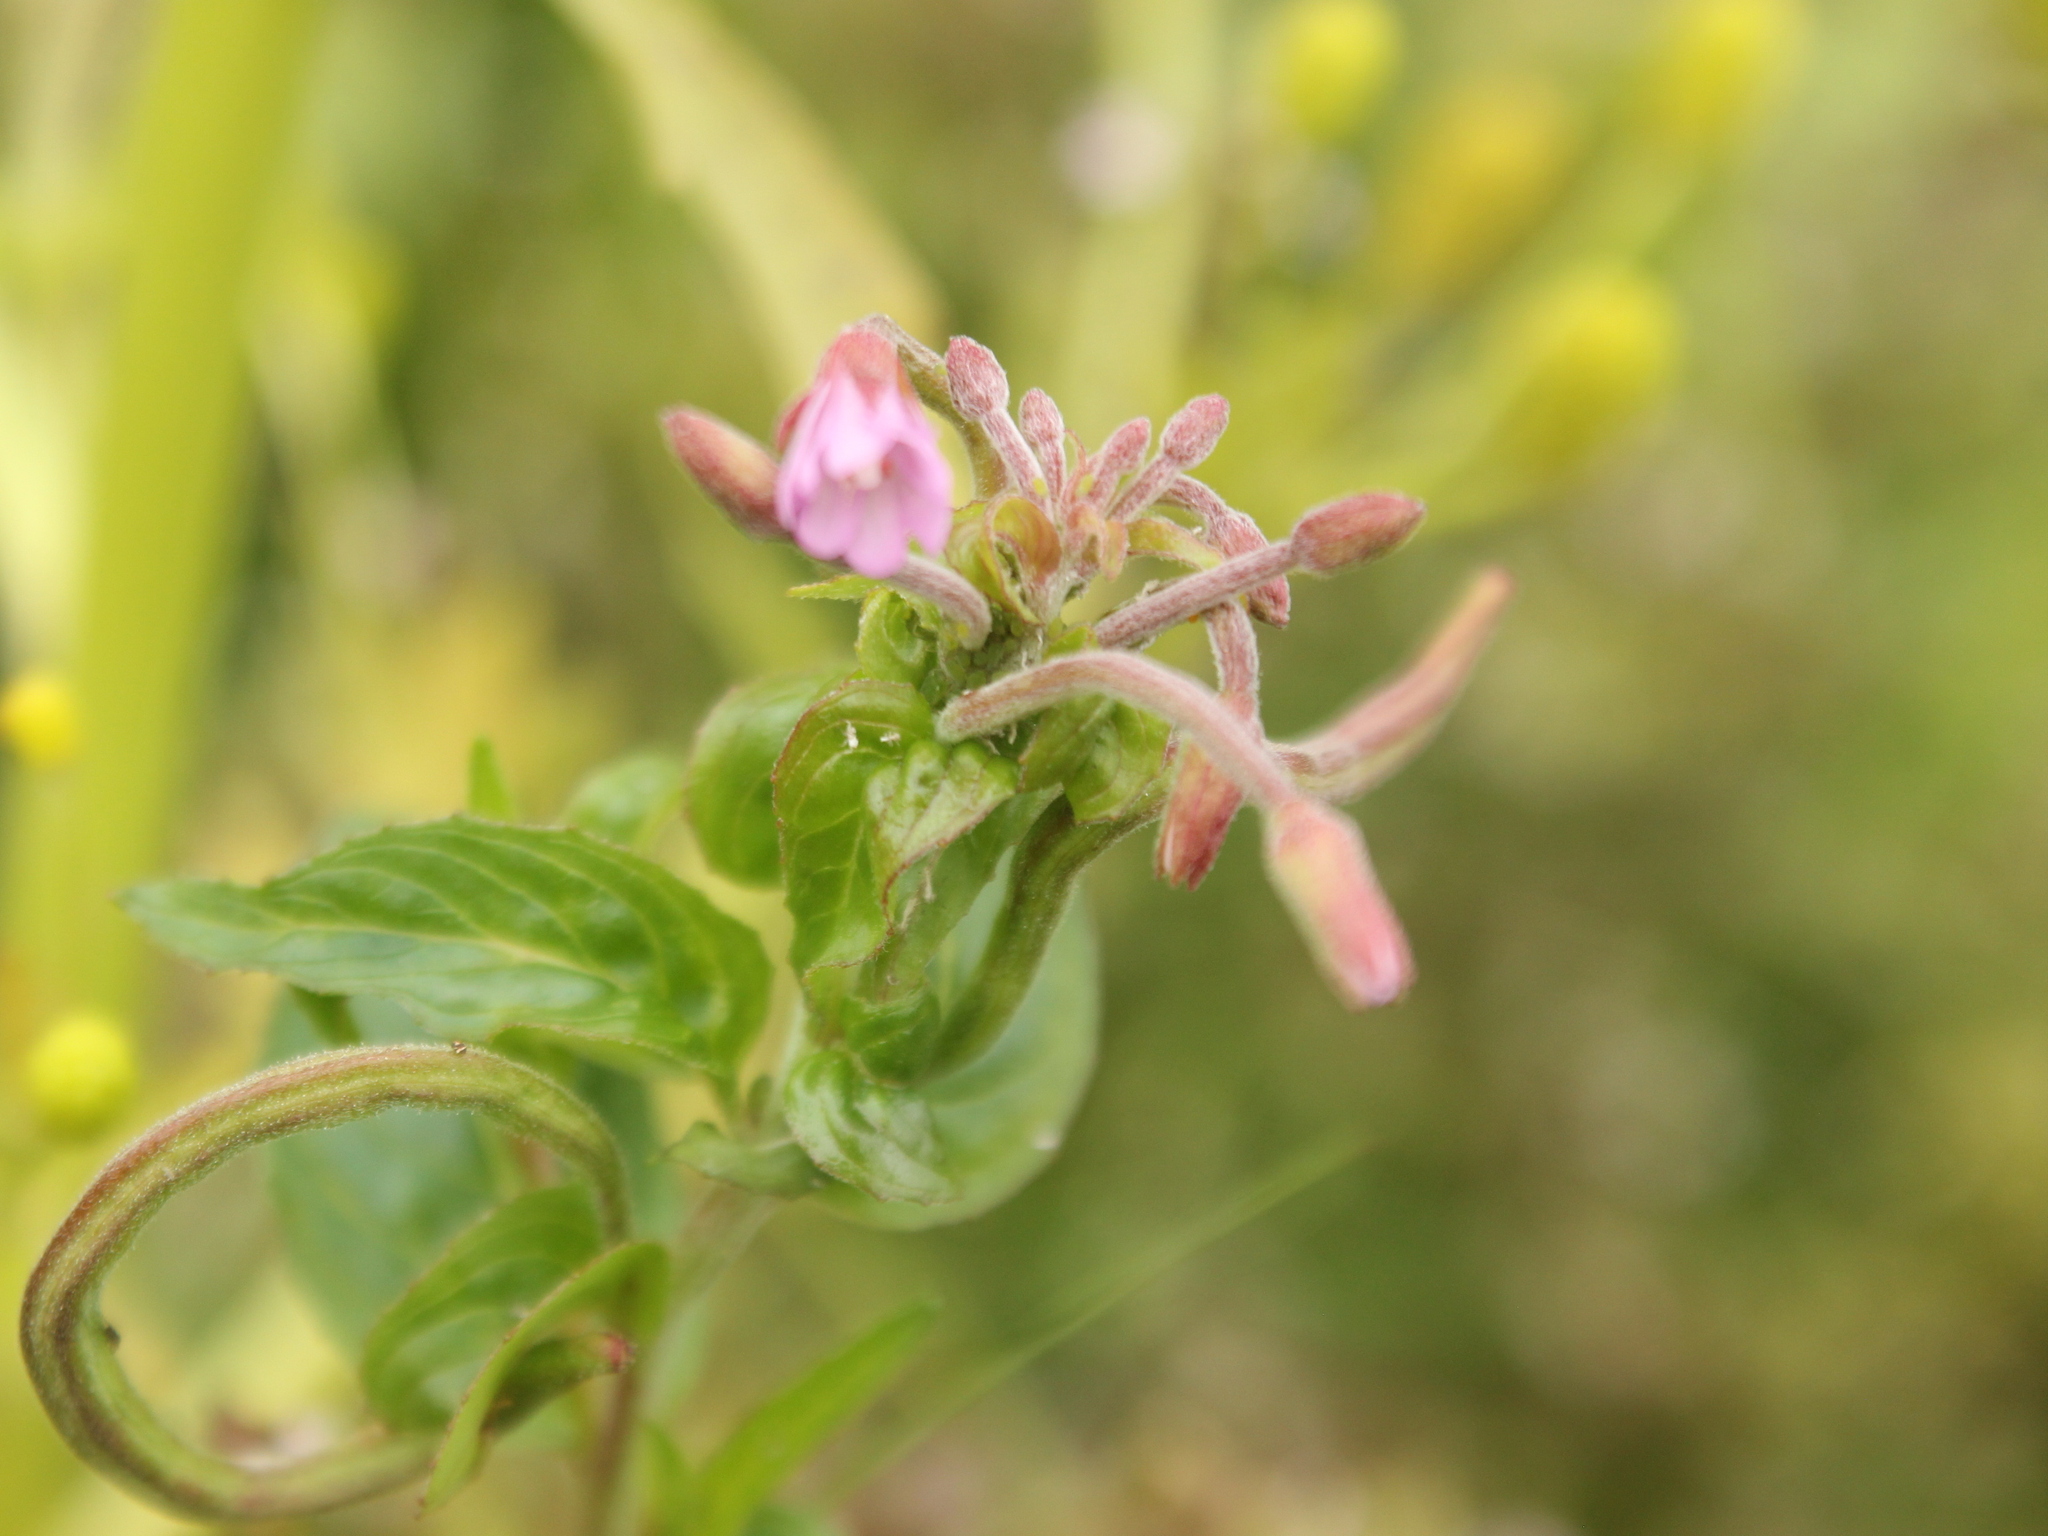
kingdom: Plantae
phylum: Tracheophyta
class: Magnoliopsida
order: Myrtales
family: Onagraceae
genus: Epilobium
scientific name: Epilobium ciliatum
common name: American willowherb
